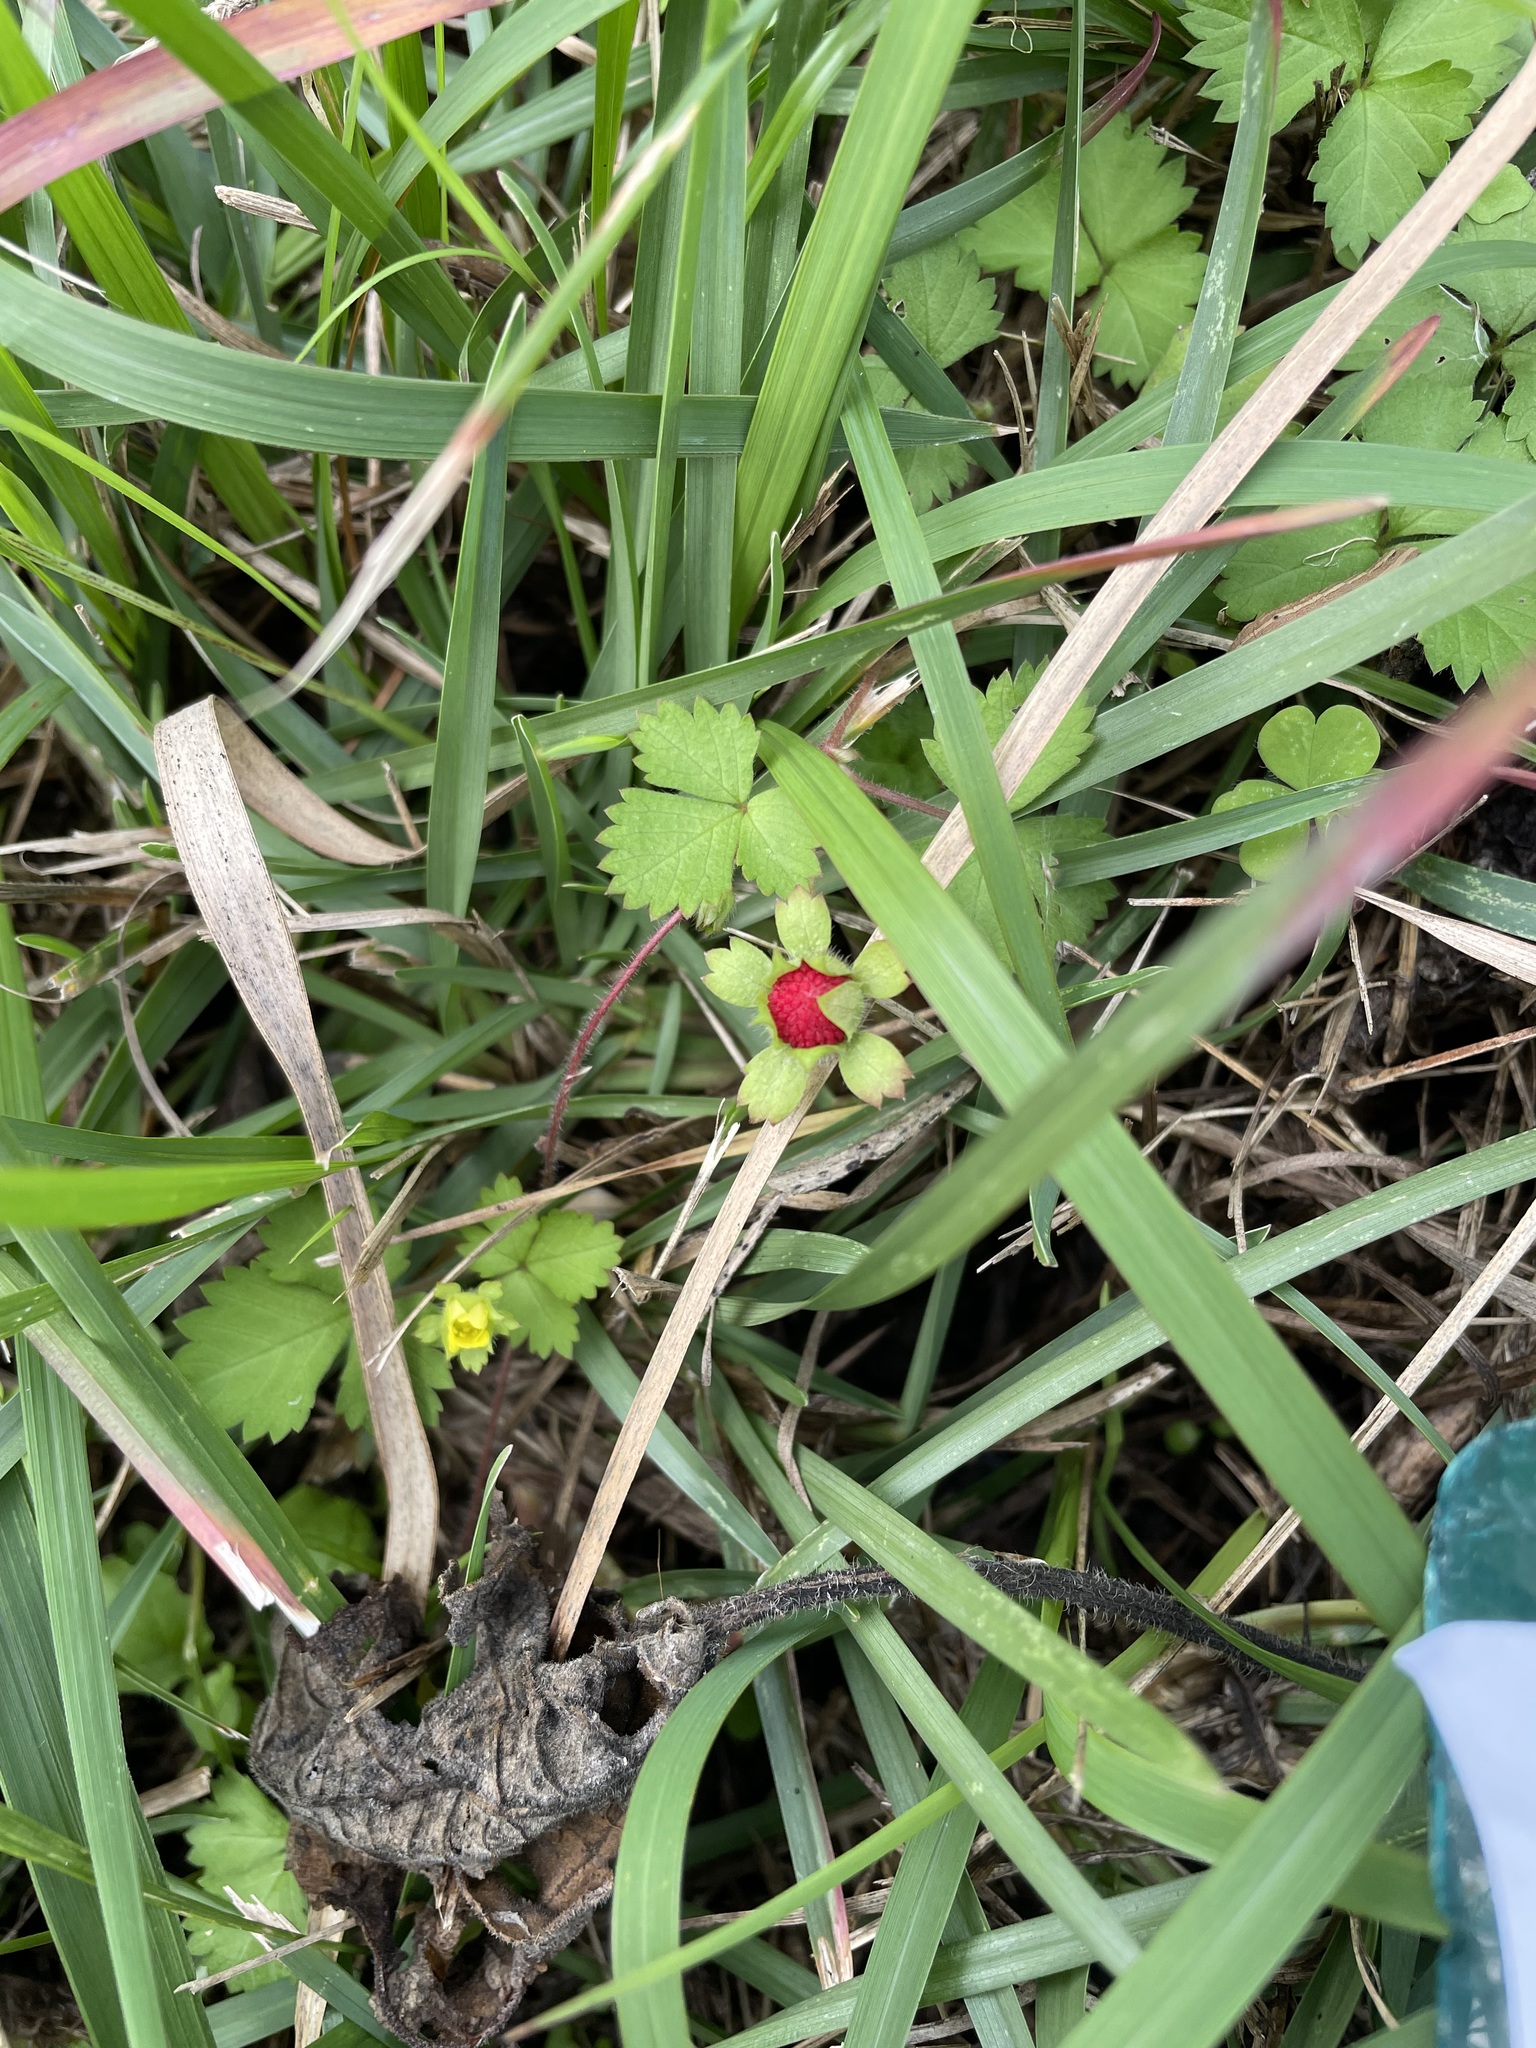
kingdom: Plantae
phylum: Tracheophyta
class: Magnoliopsida
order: Rosales
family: Rosaceae
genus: Potentilla
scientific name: Potentilla wallichiana
